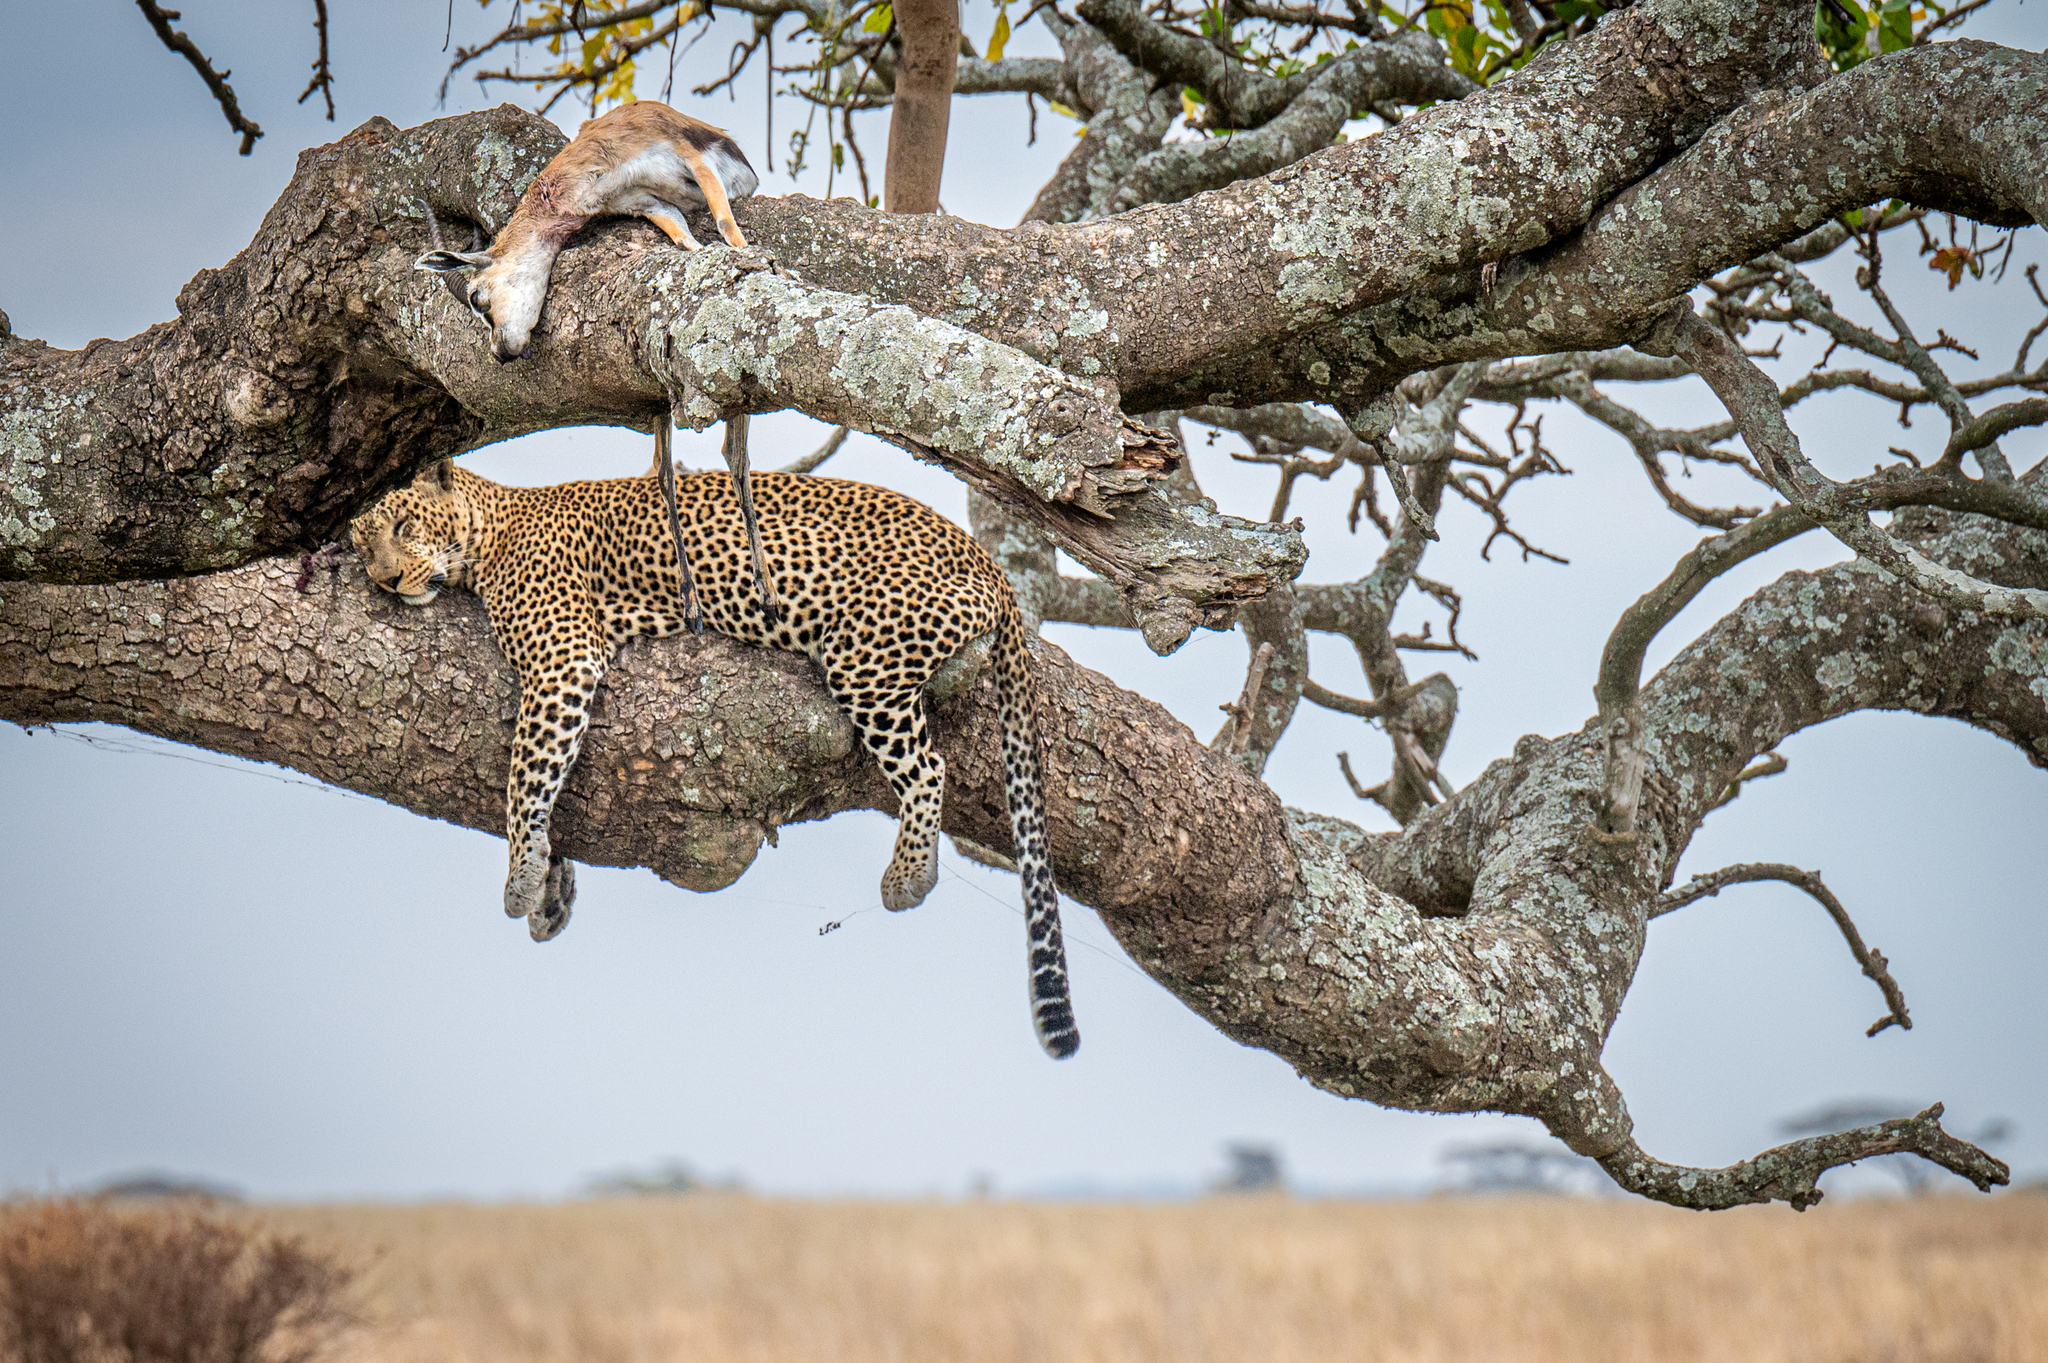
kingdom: Animalia
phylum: Chordata
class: Mammalia
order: Carnivora
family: Felidae
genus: Panthera
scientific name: Panthera pardus
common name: Leopard
